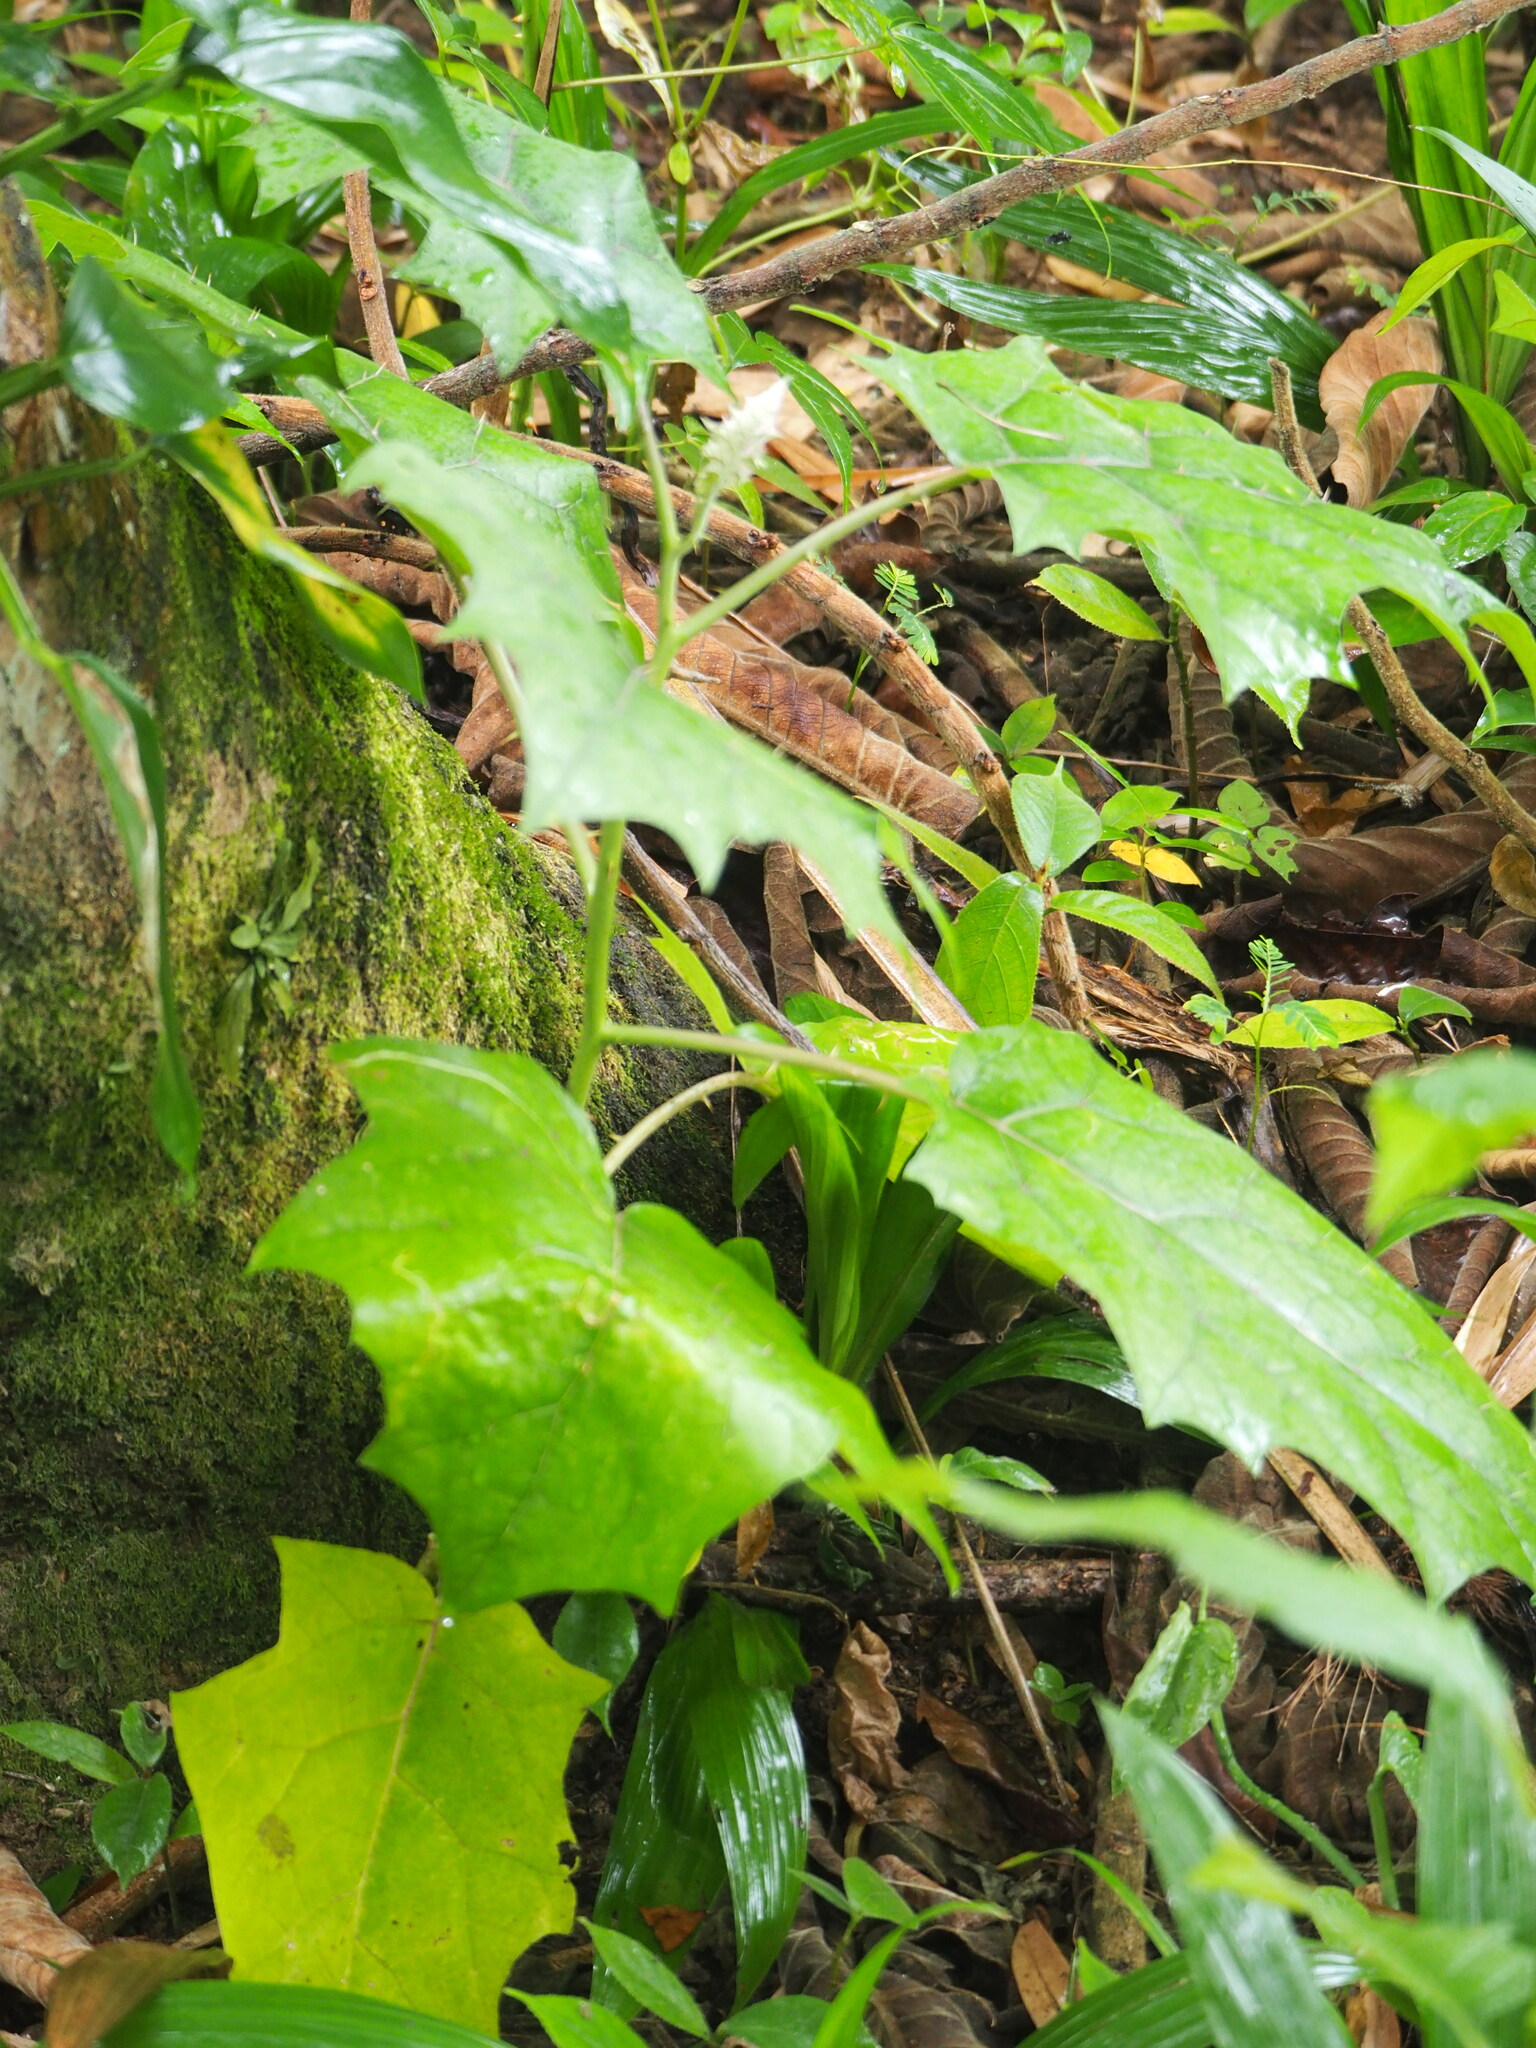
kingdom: Plantae
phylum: Tracheophyta
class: Magnoliopsida
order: Solanales
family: Solanaceae
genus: Solanum
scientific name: Solanum
